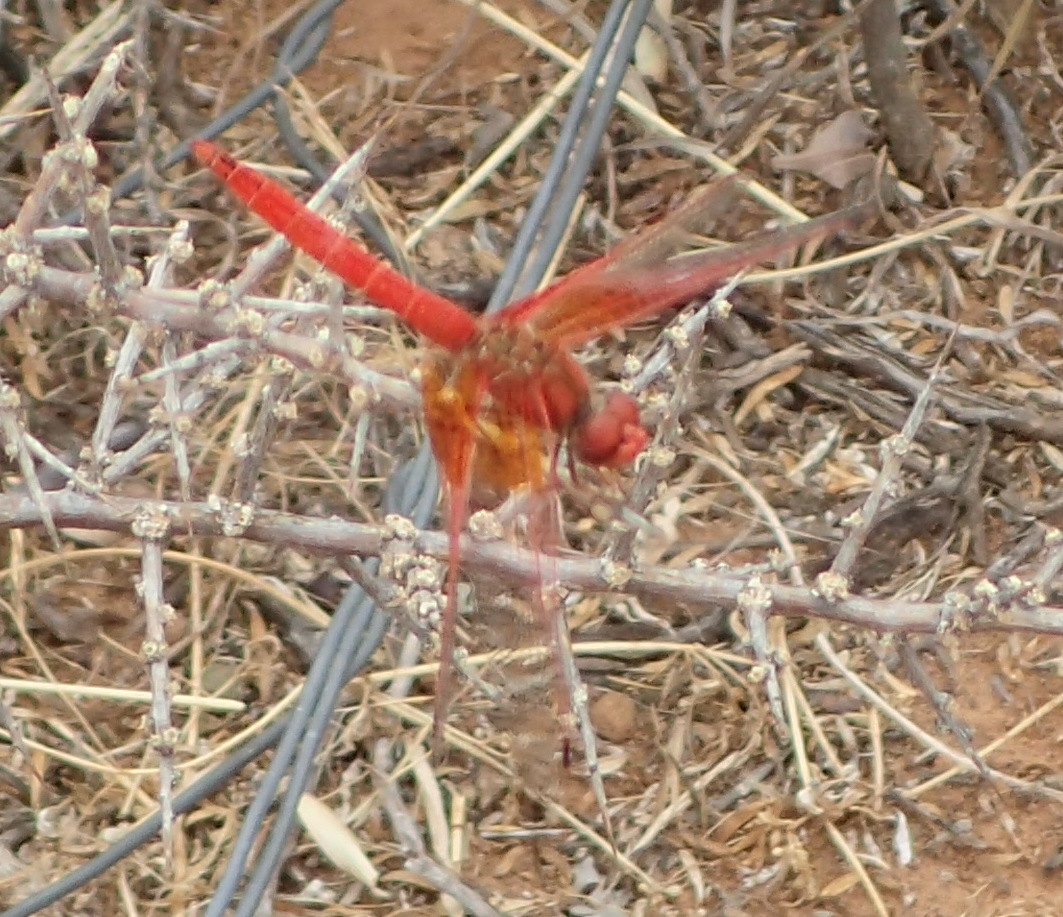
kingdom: Animalia
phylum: Arthropoda
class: Insecta
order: Odonata
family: Libellulidae
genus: Trithemis
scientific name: Trithemis kirbyi
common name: Kirby's dropwing
